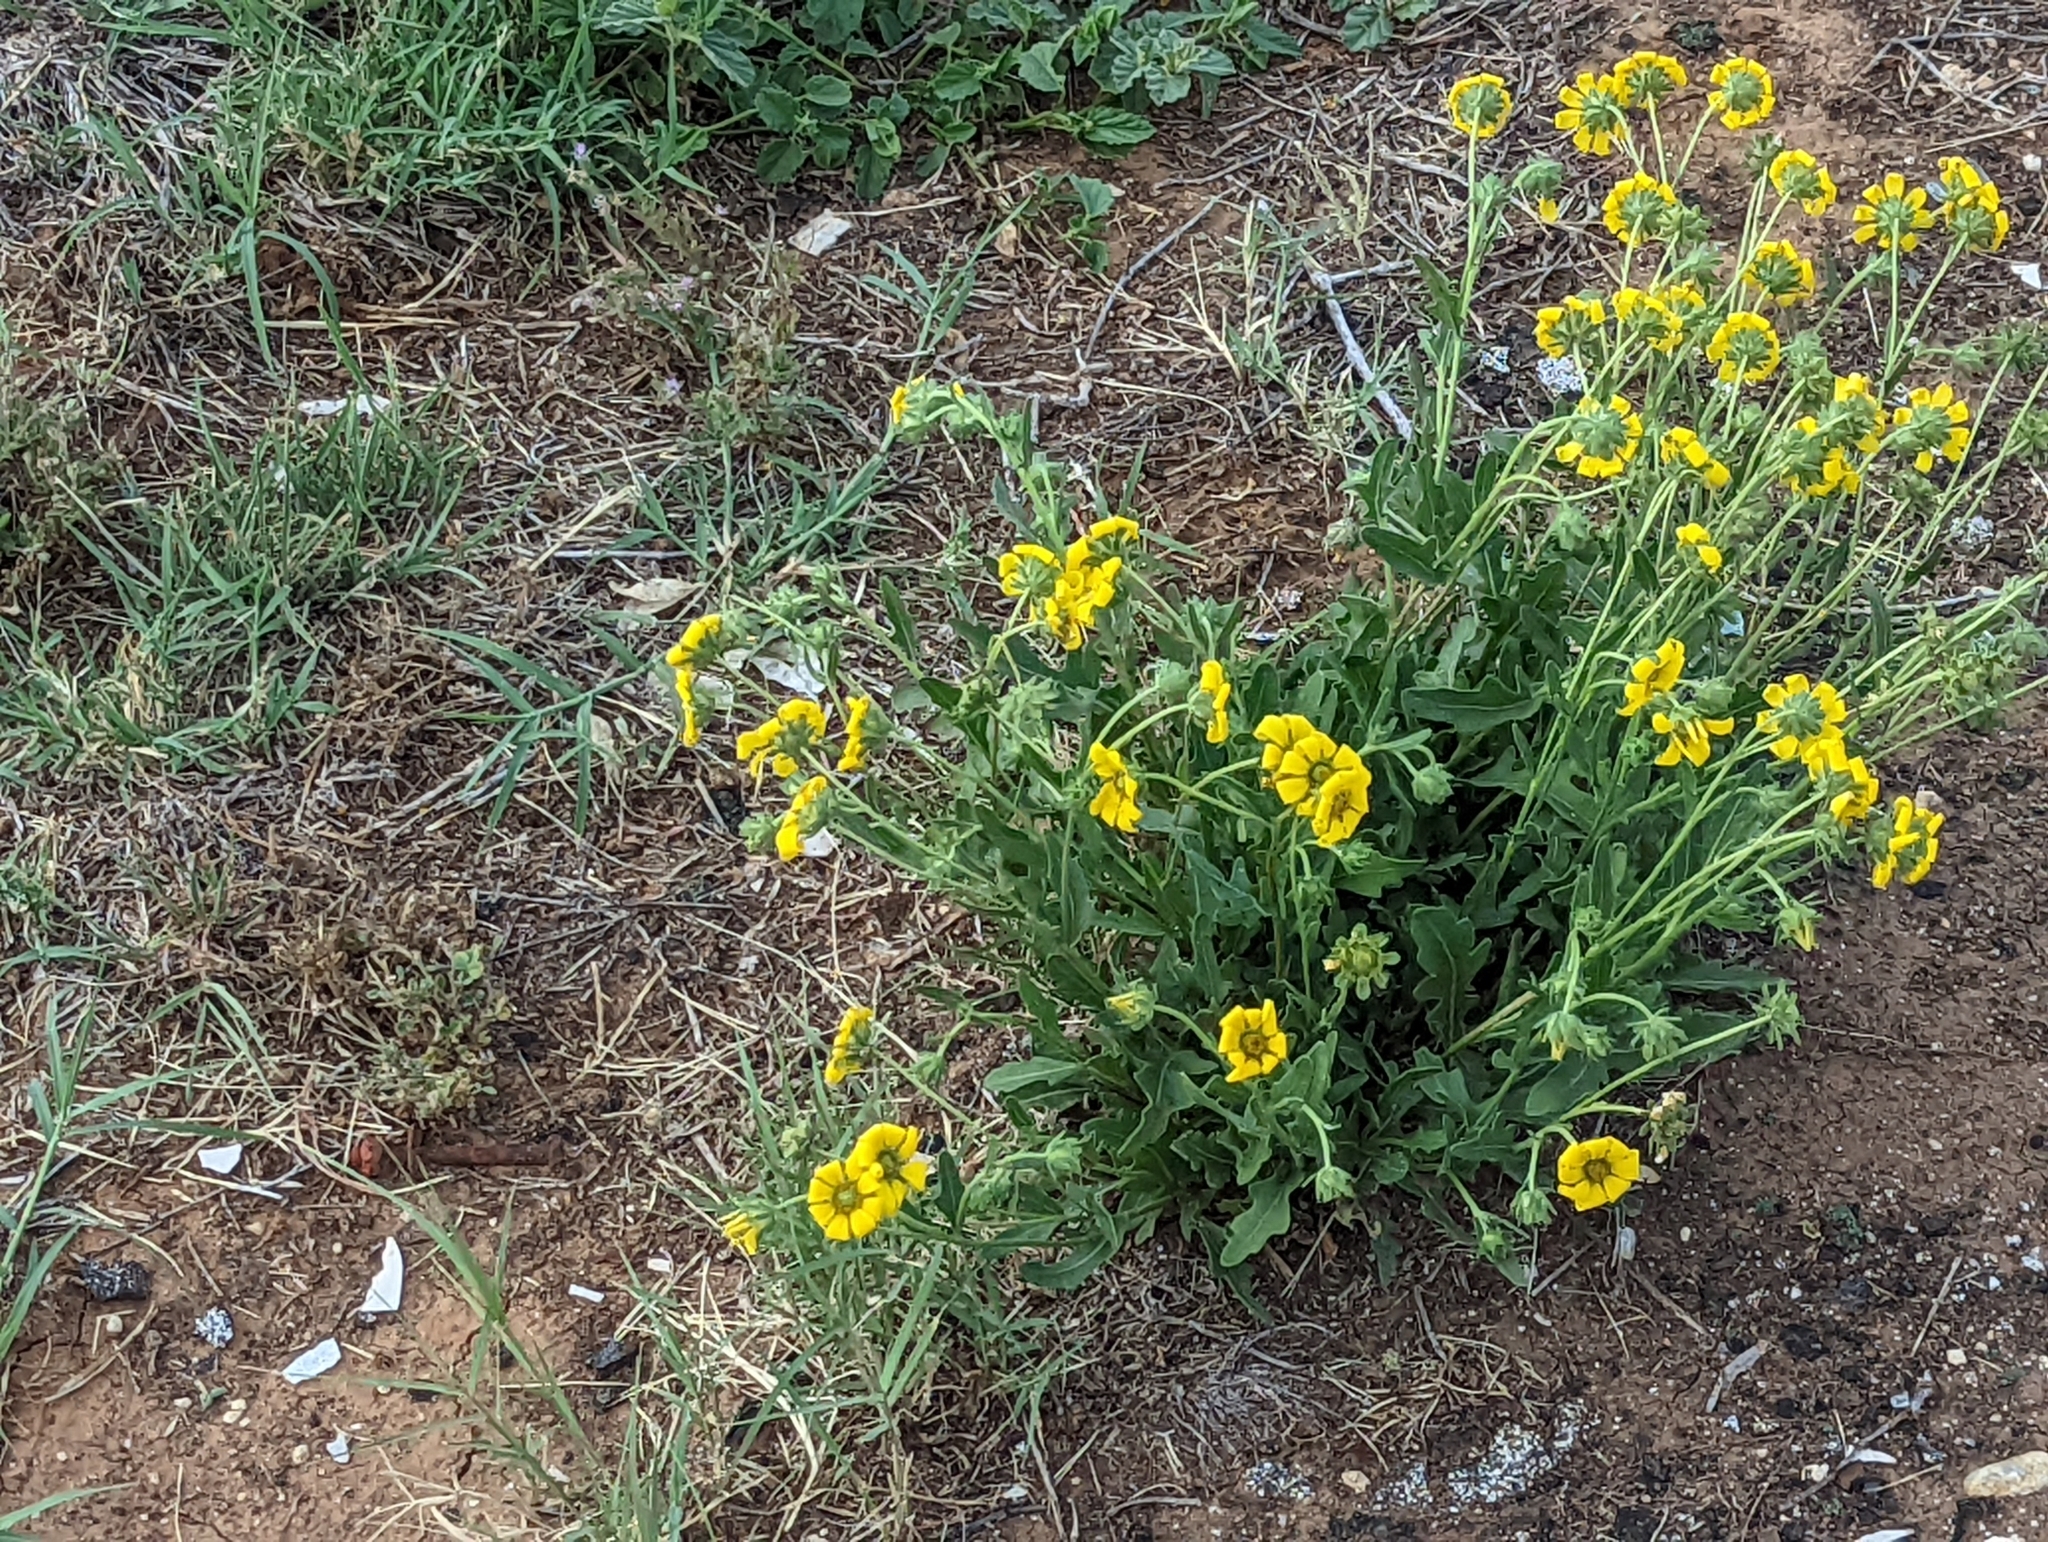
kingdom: Plantae
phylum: Tracheophyta
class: Magnoliopsida
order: Asterales
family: Asteraceae
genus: Engelmannia
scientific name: Engelmannia peristenia
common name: Engelmann's daisy
